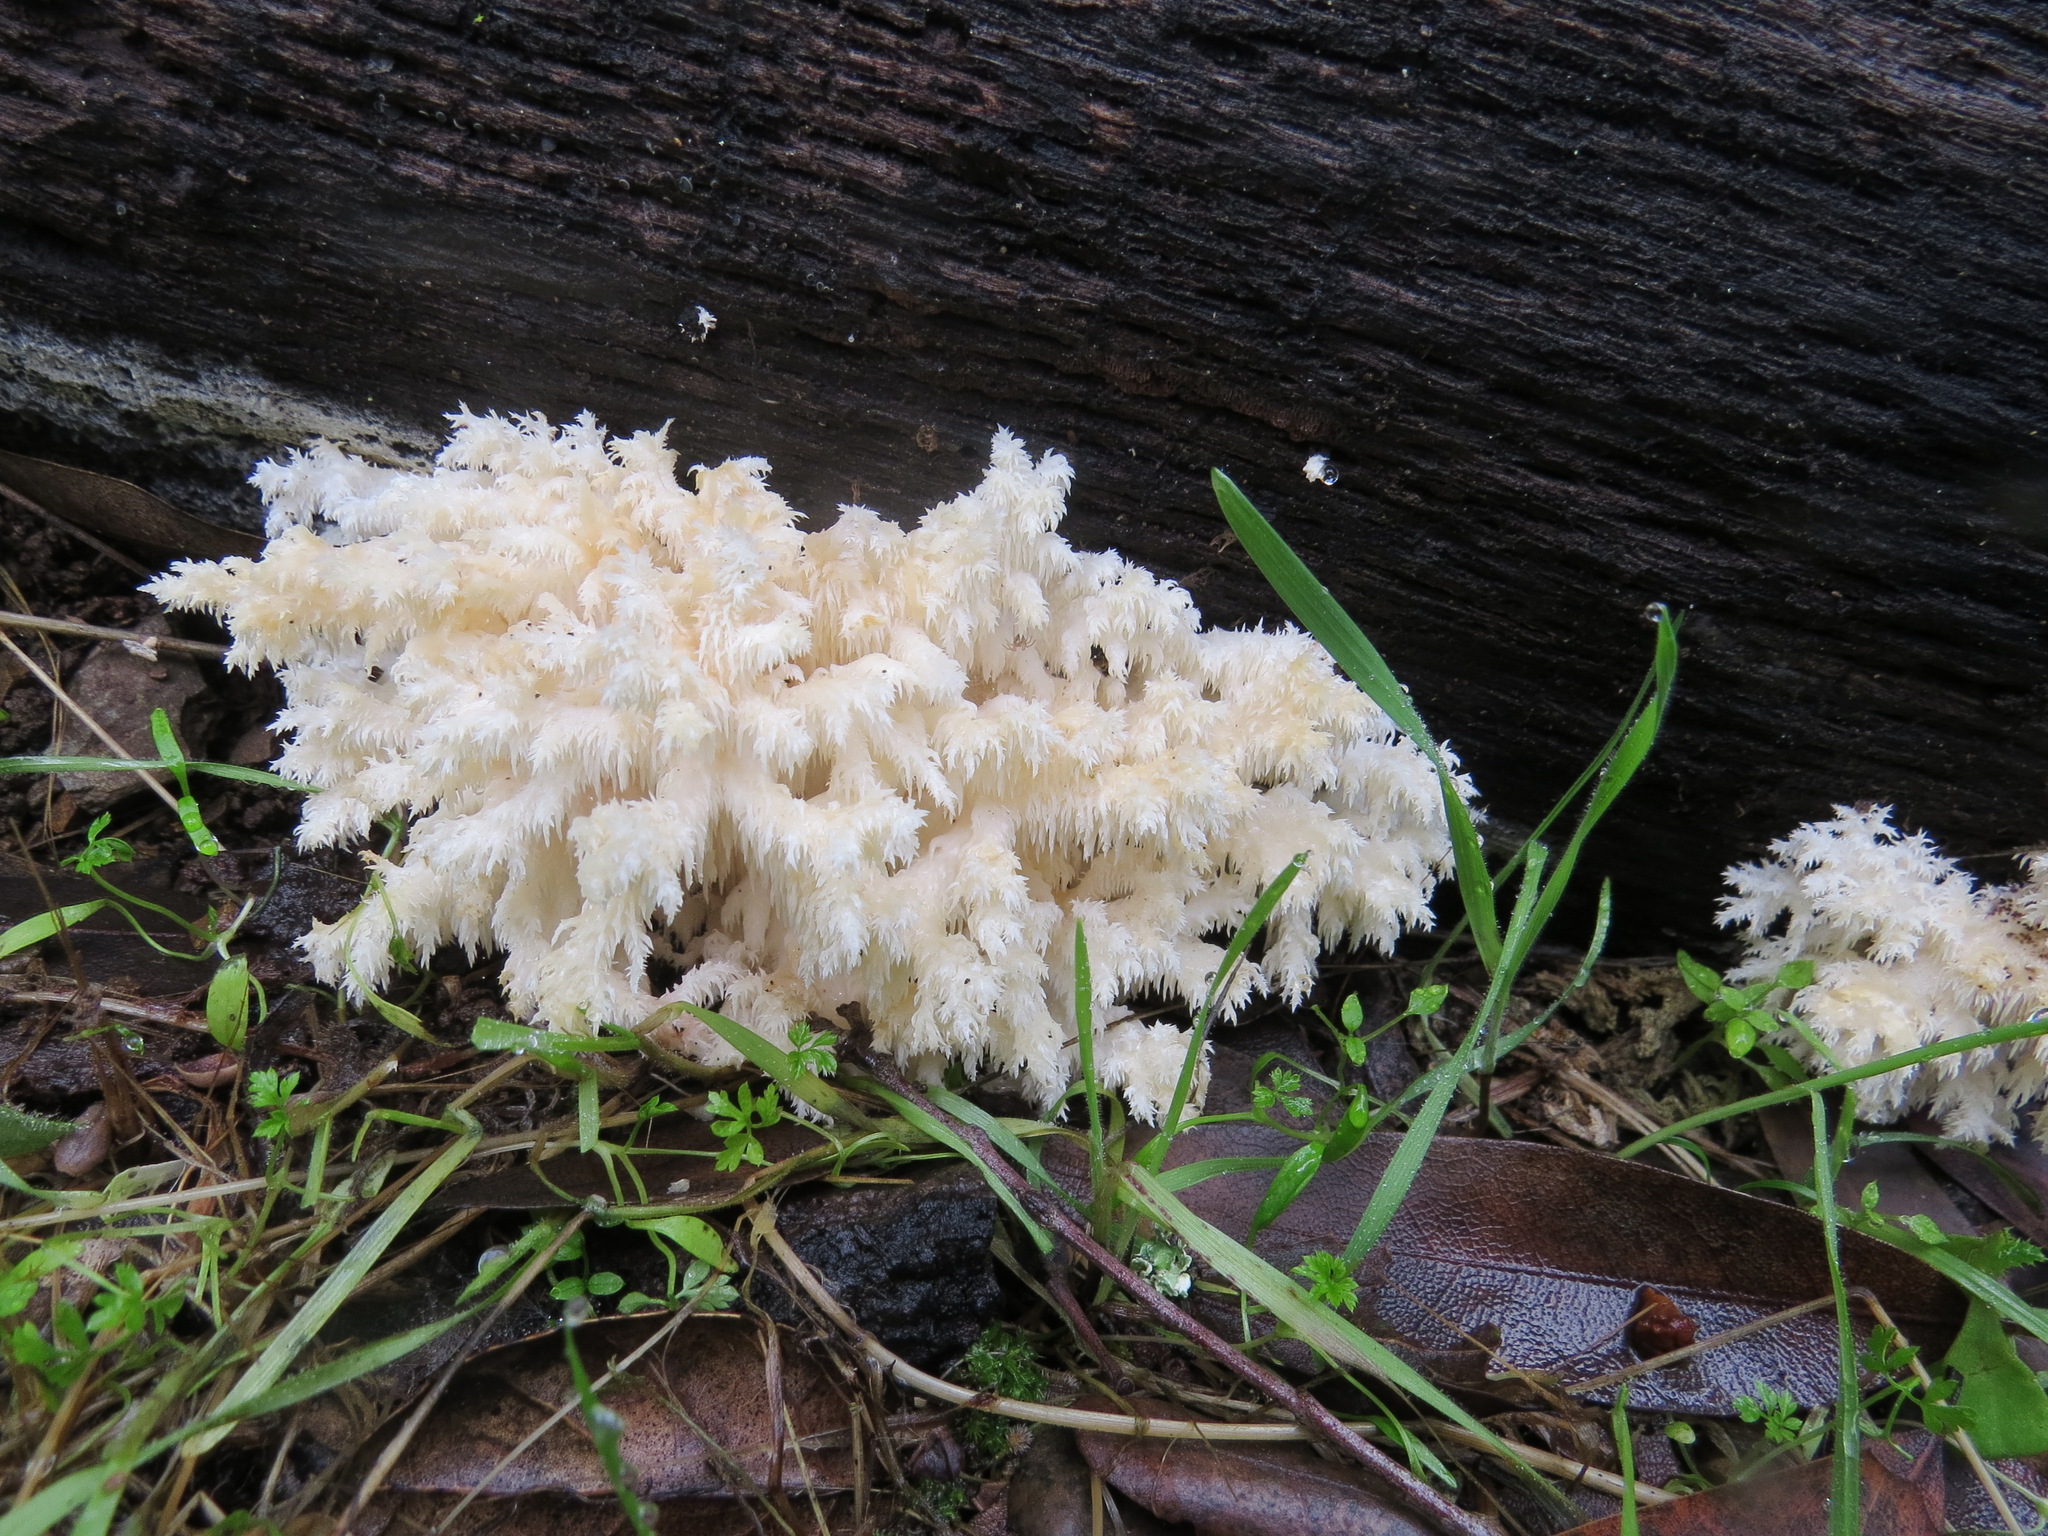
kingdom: Fungi
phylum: Basidiomycota
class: Agaricomycetes
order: Russulales
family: Hericiaceae
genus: Hericium
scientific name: Hericium coralloides
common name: Coral tooth
